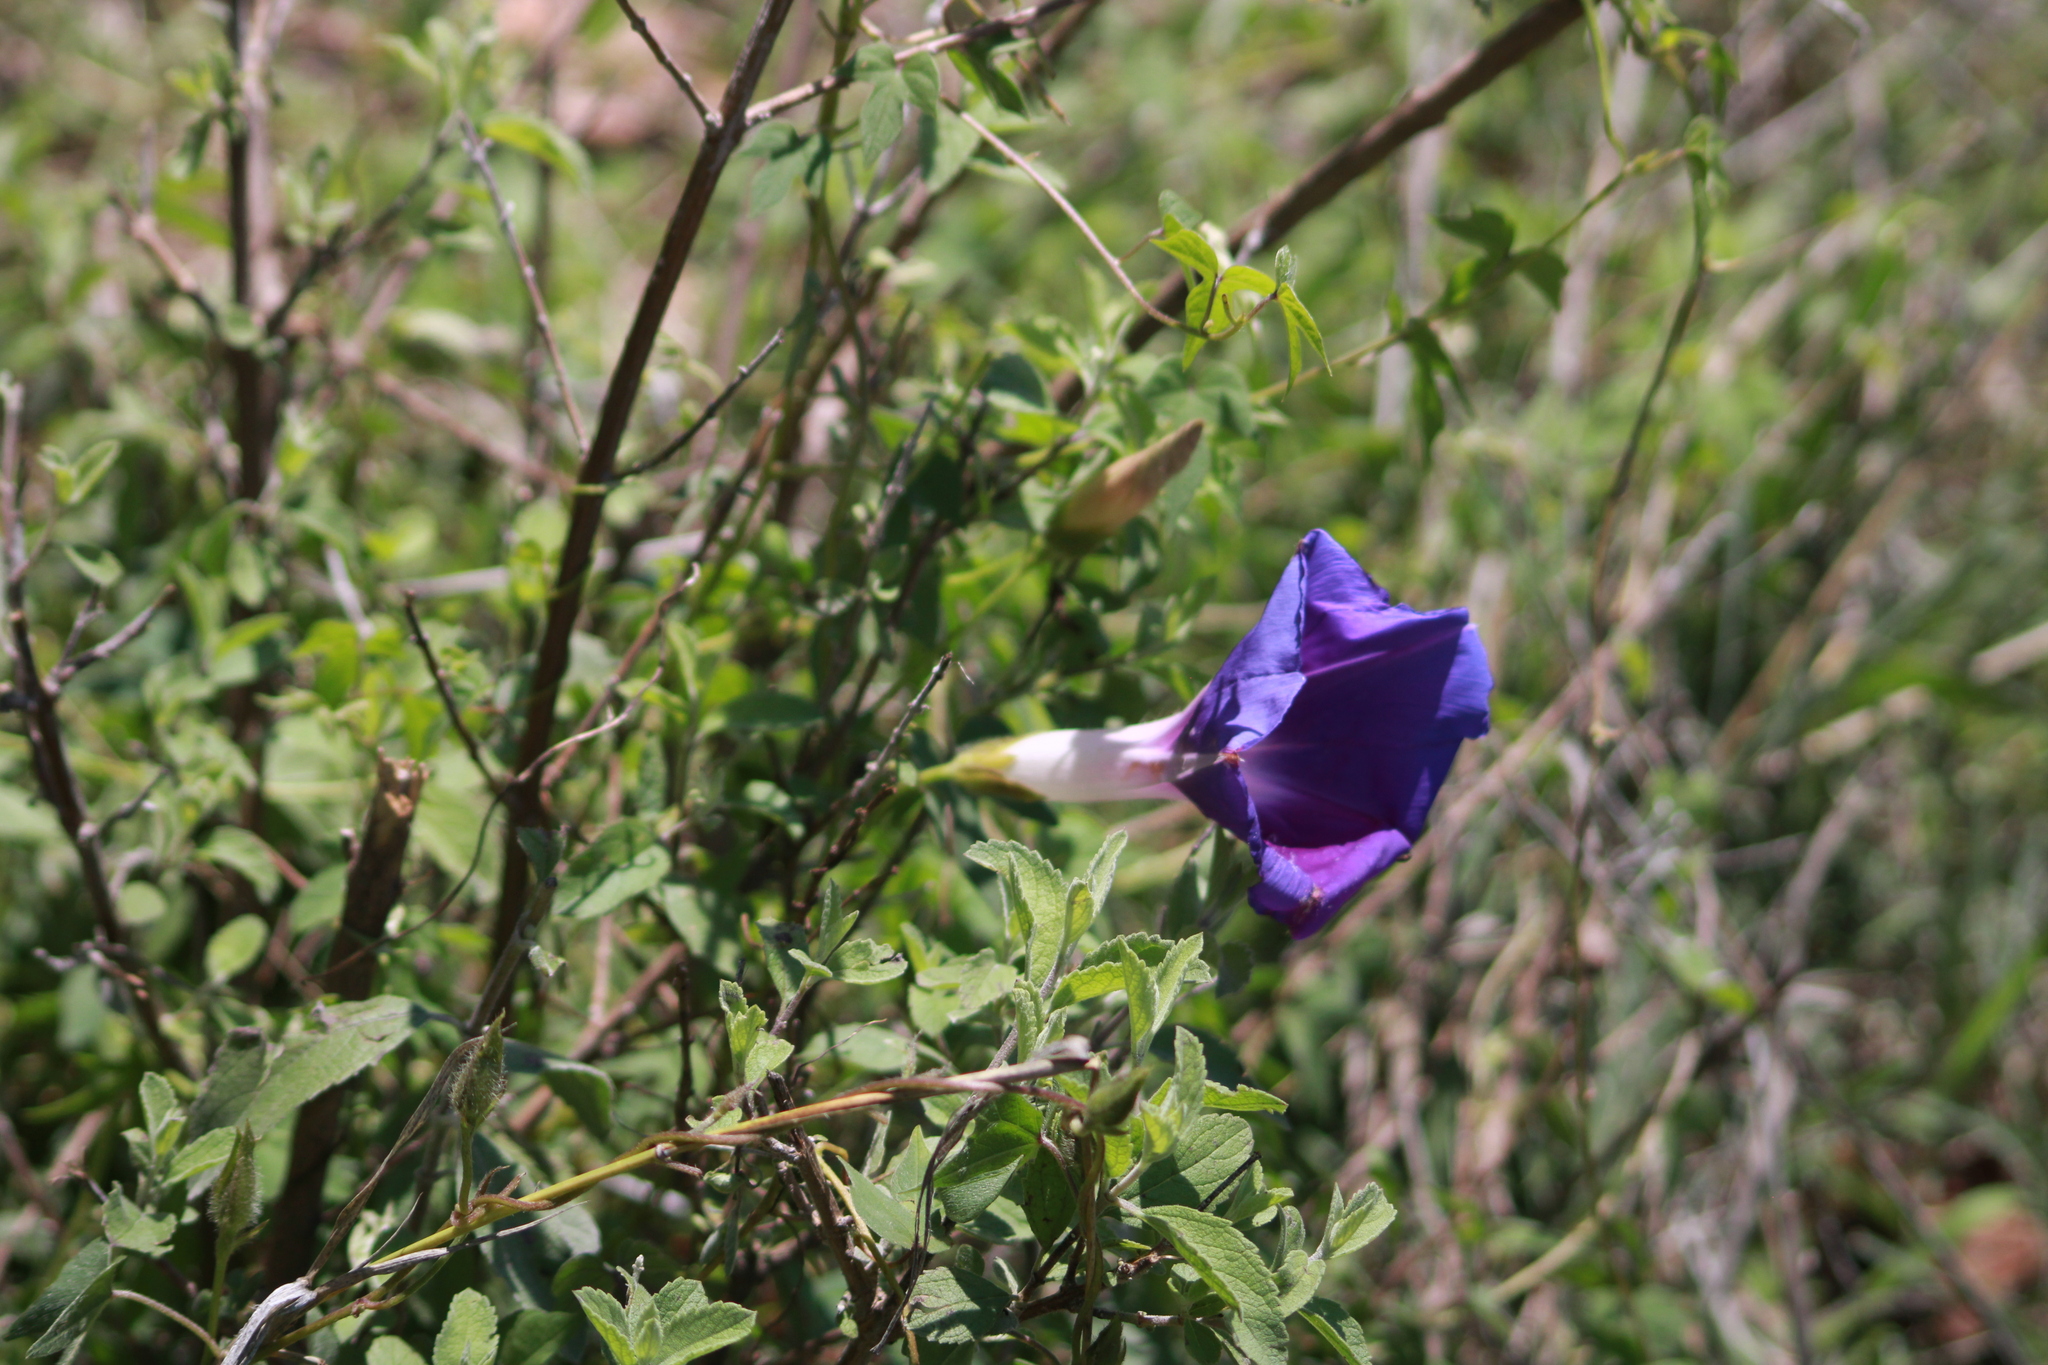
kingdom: Plantae
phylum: Tracheophyta
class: Magnoliopsida
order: Solanales
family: Convolvulaceae
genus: Ipomoea
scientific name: Ipomoea laeta
